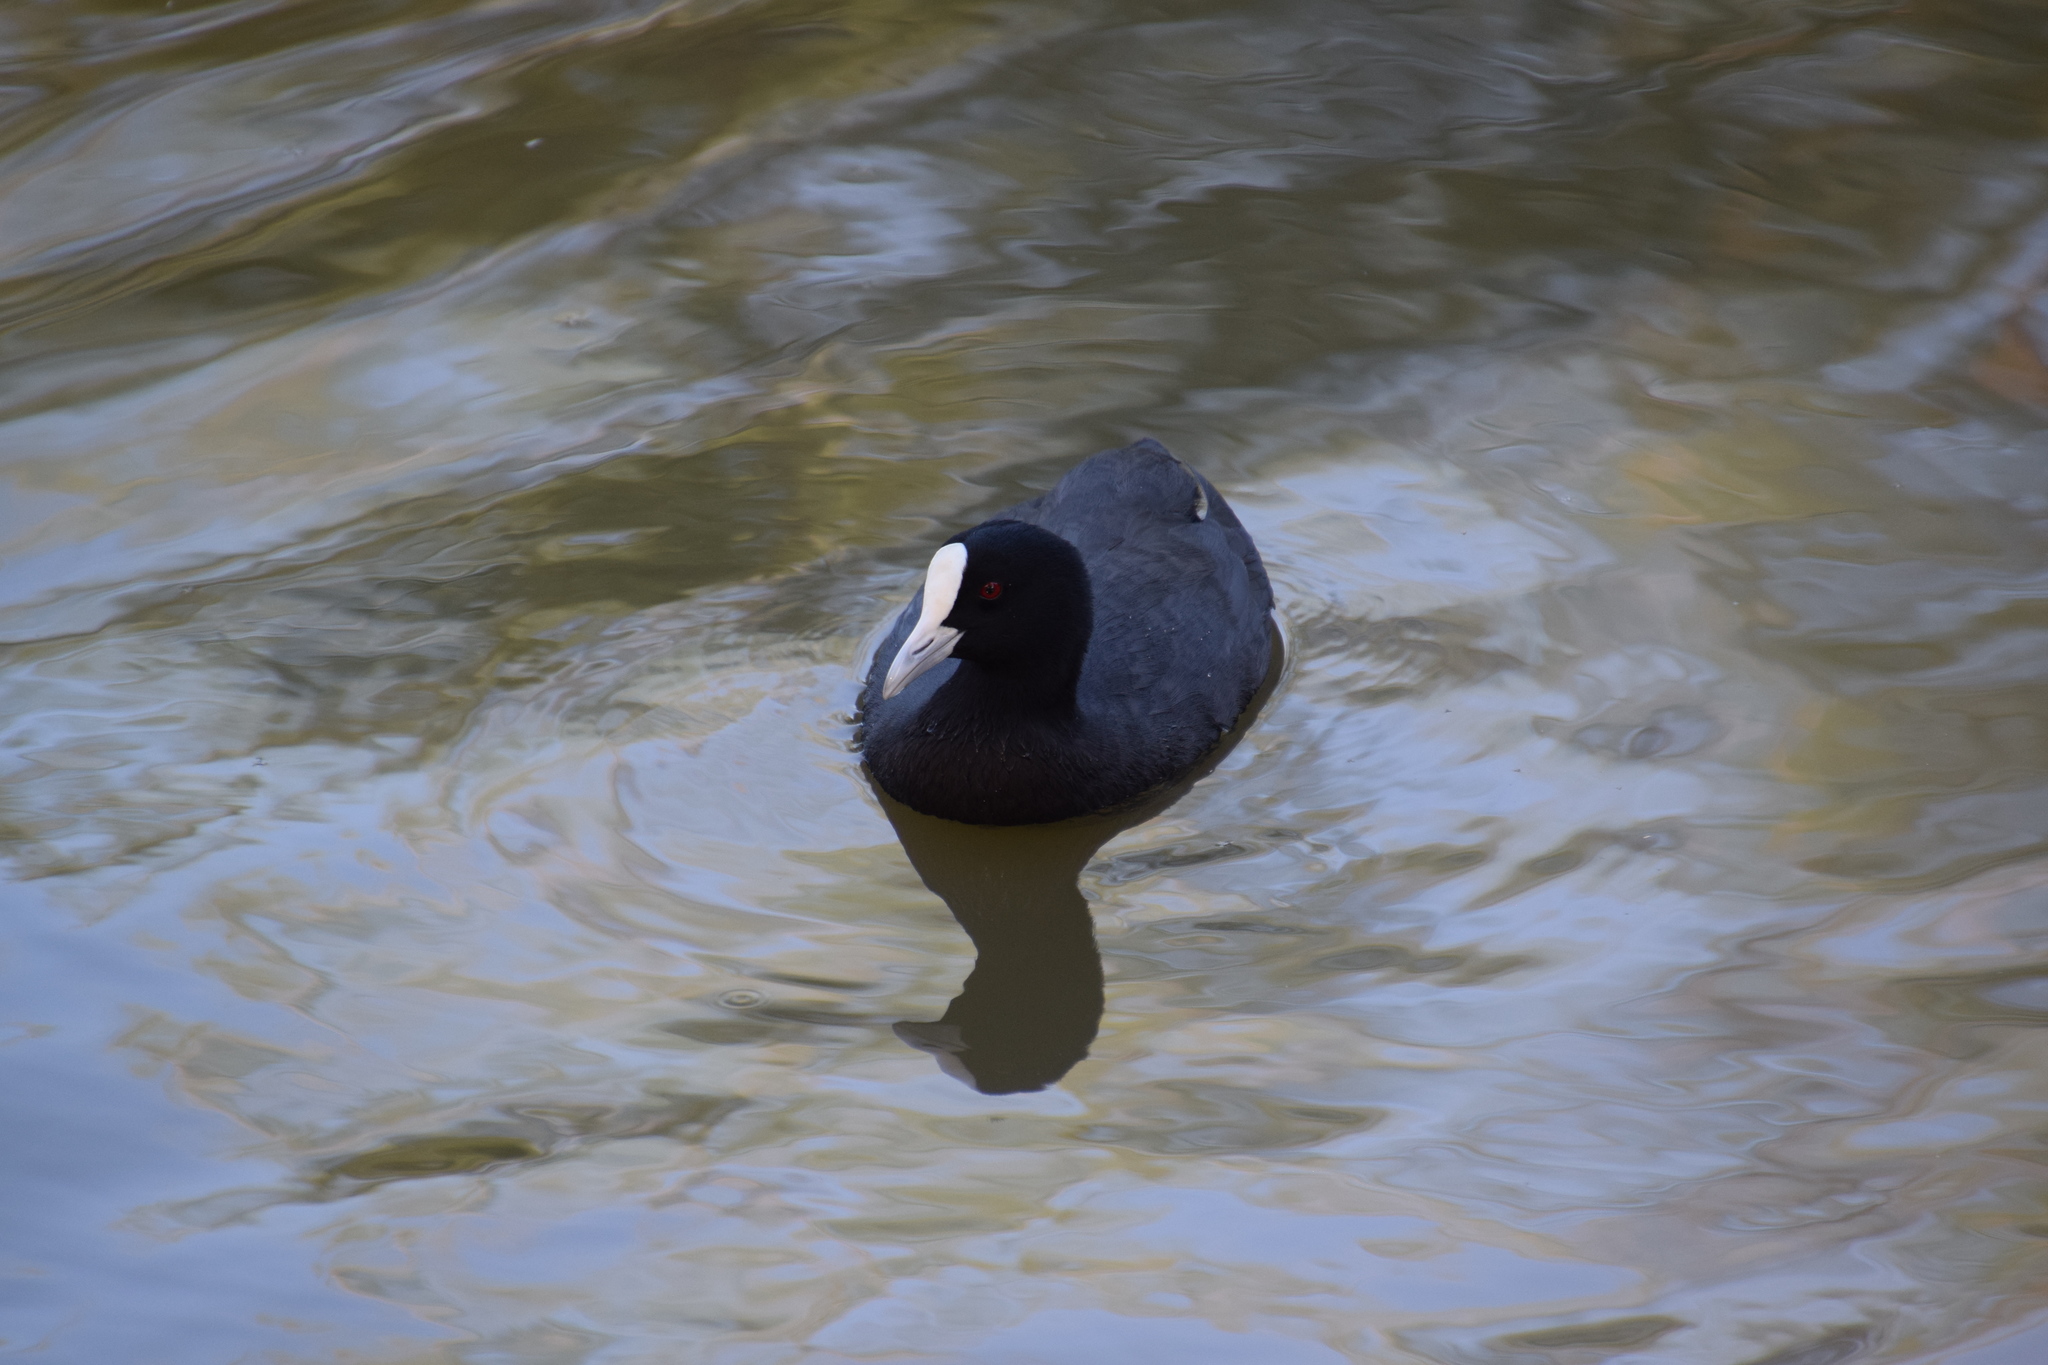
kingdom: Animalia
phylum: Chordata
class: Aves
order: Gruiformes
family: Rallidae
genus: Fulica
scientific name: Fulica atra
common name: Eurasian coot
